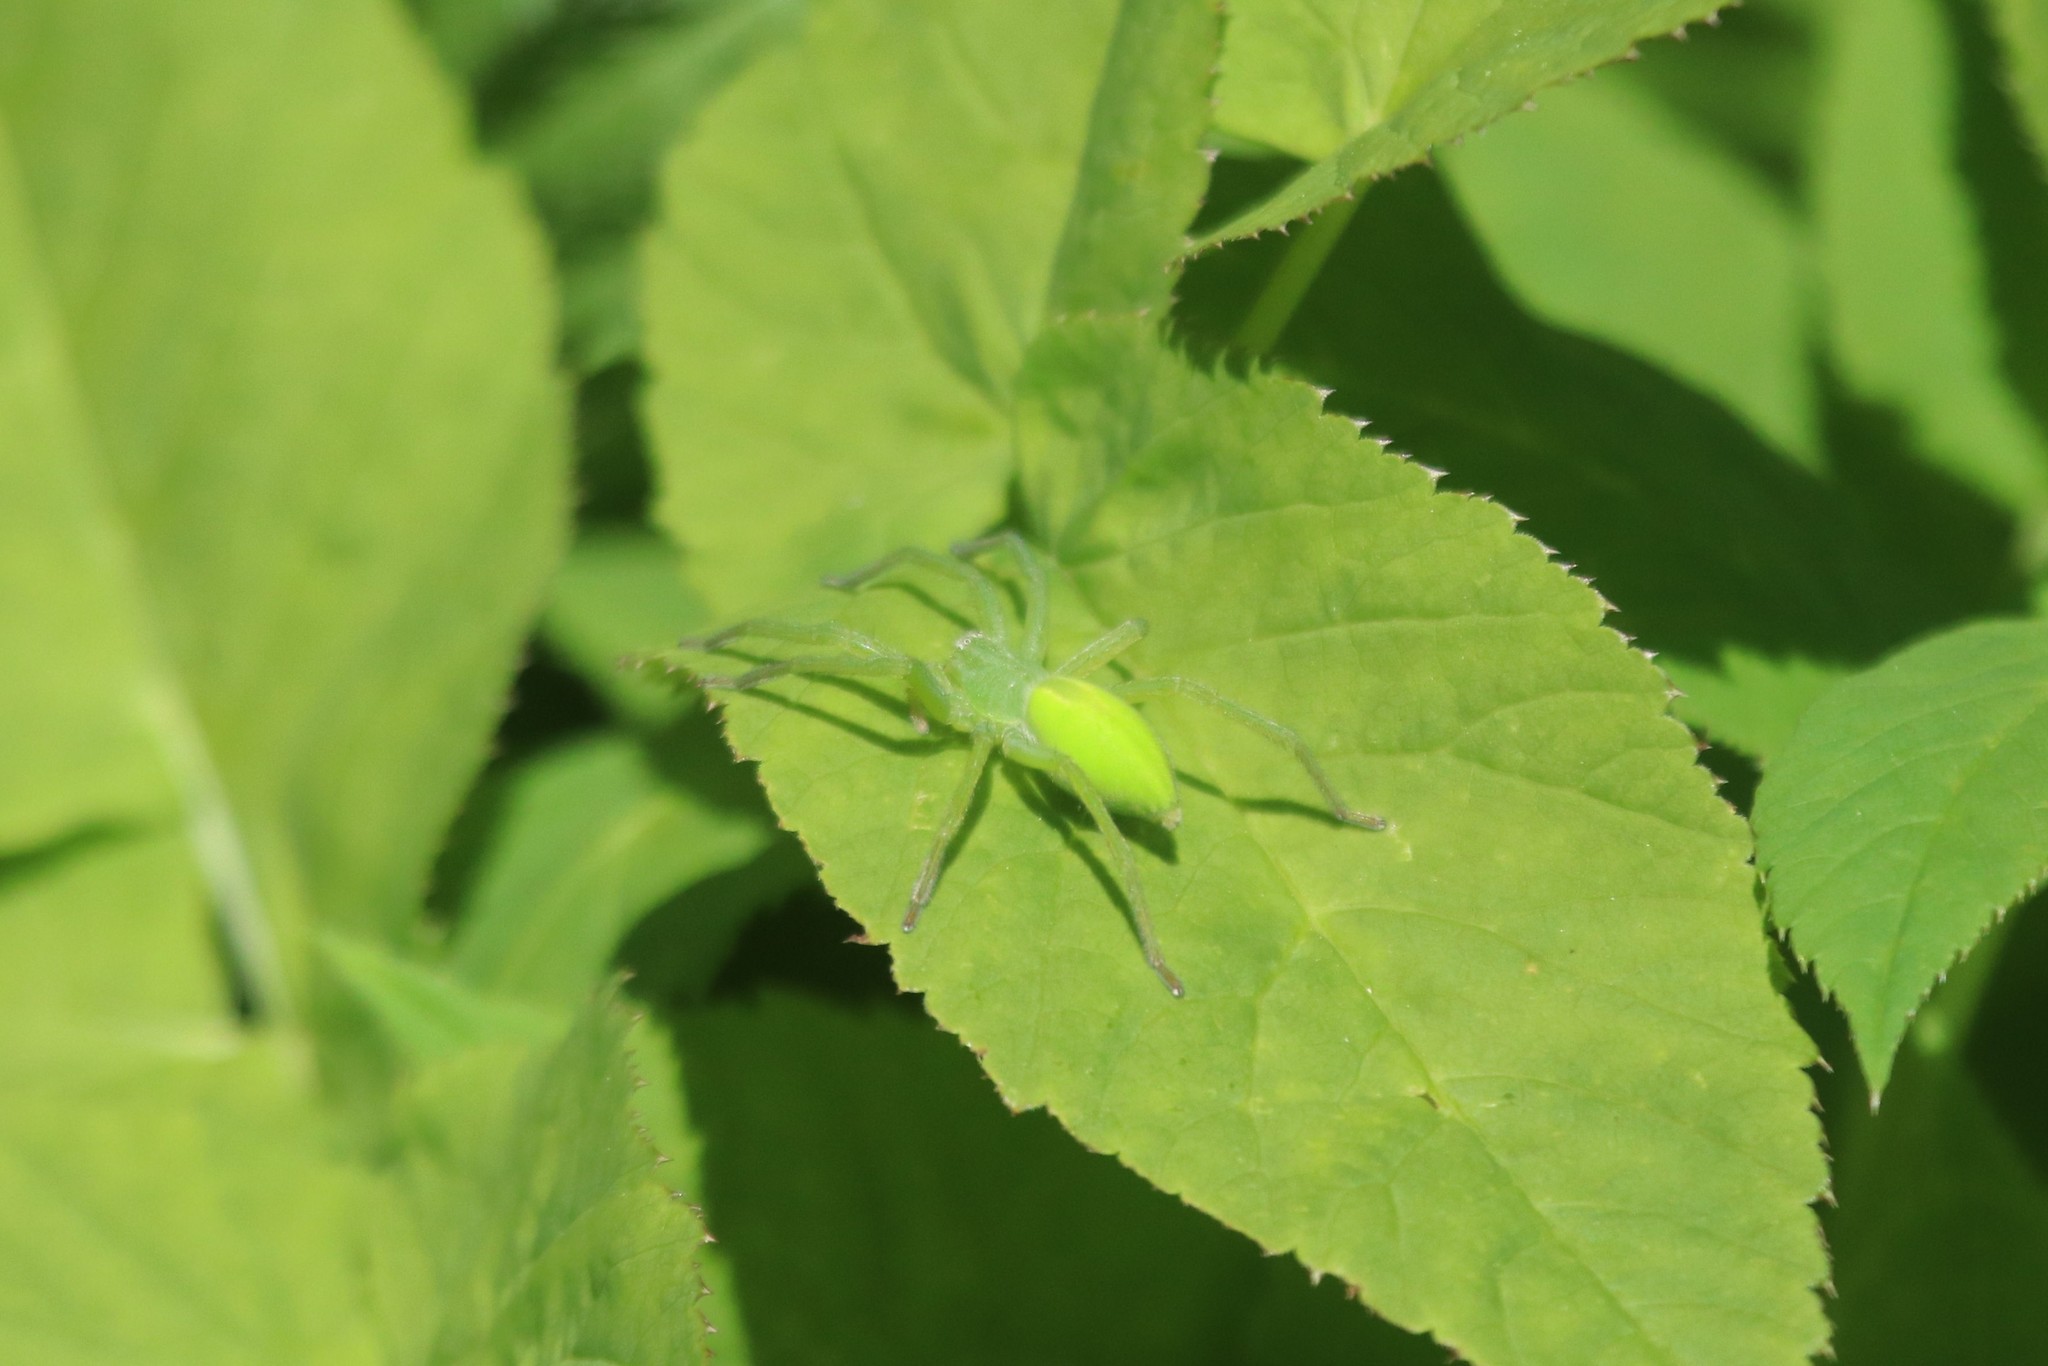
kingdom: Animalia
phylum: Arthropoda
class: Arachnida
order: Araneae
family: Sparassidae
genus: Micrommata
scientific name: Micrommata virescens
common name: Green spider
